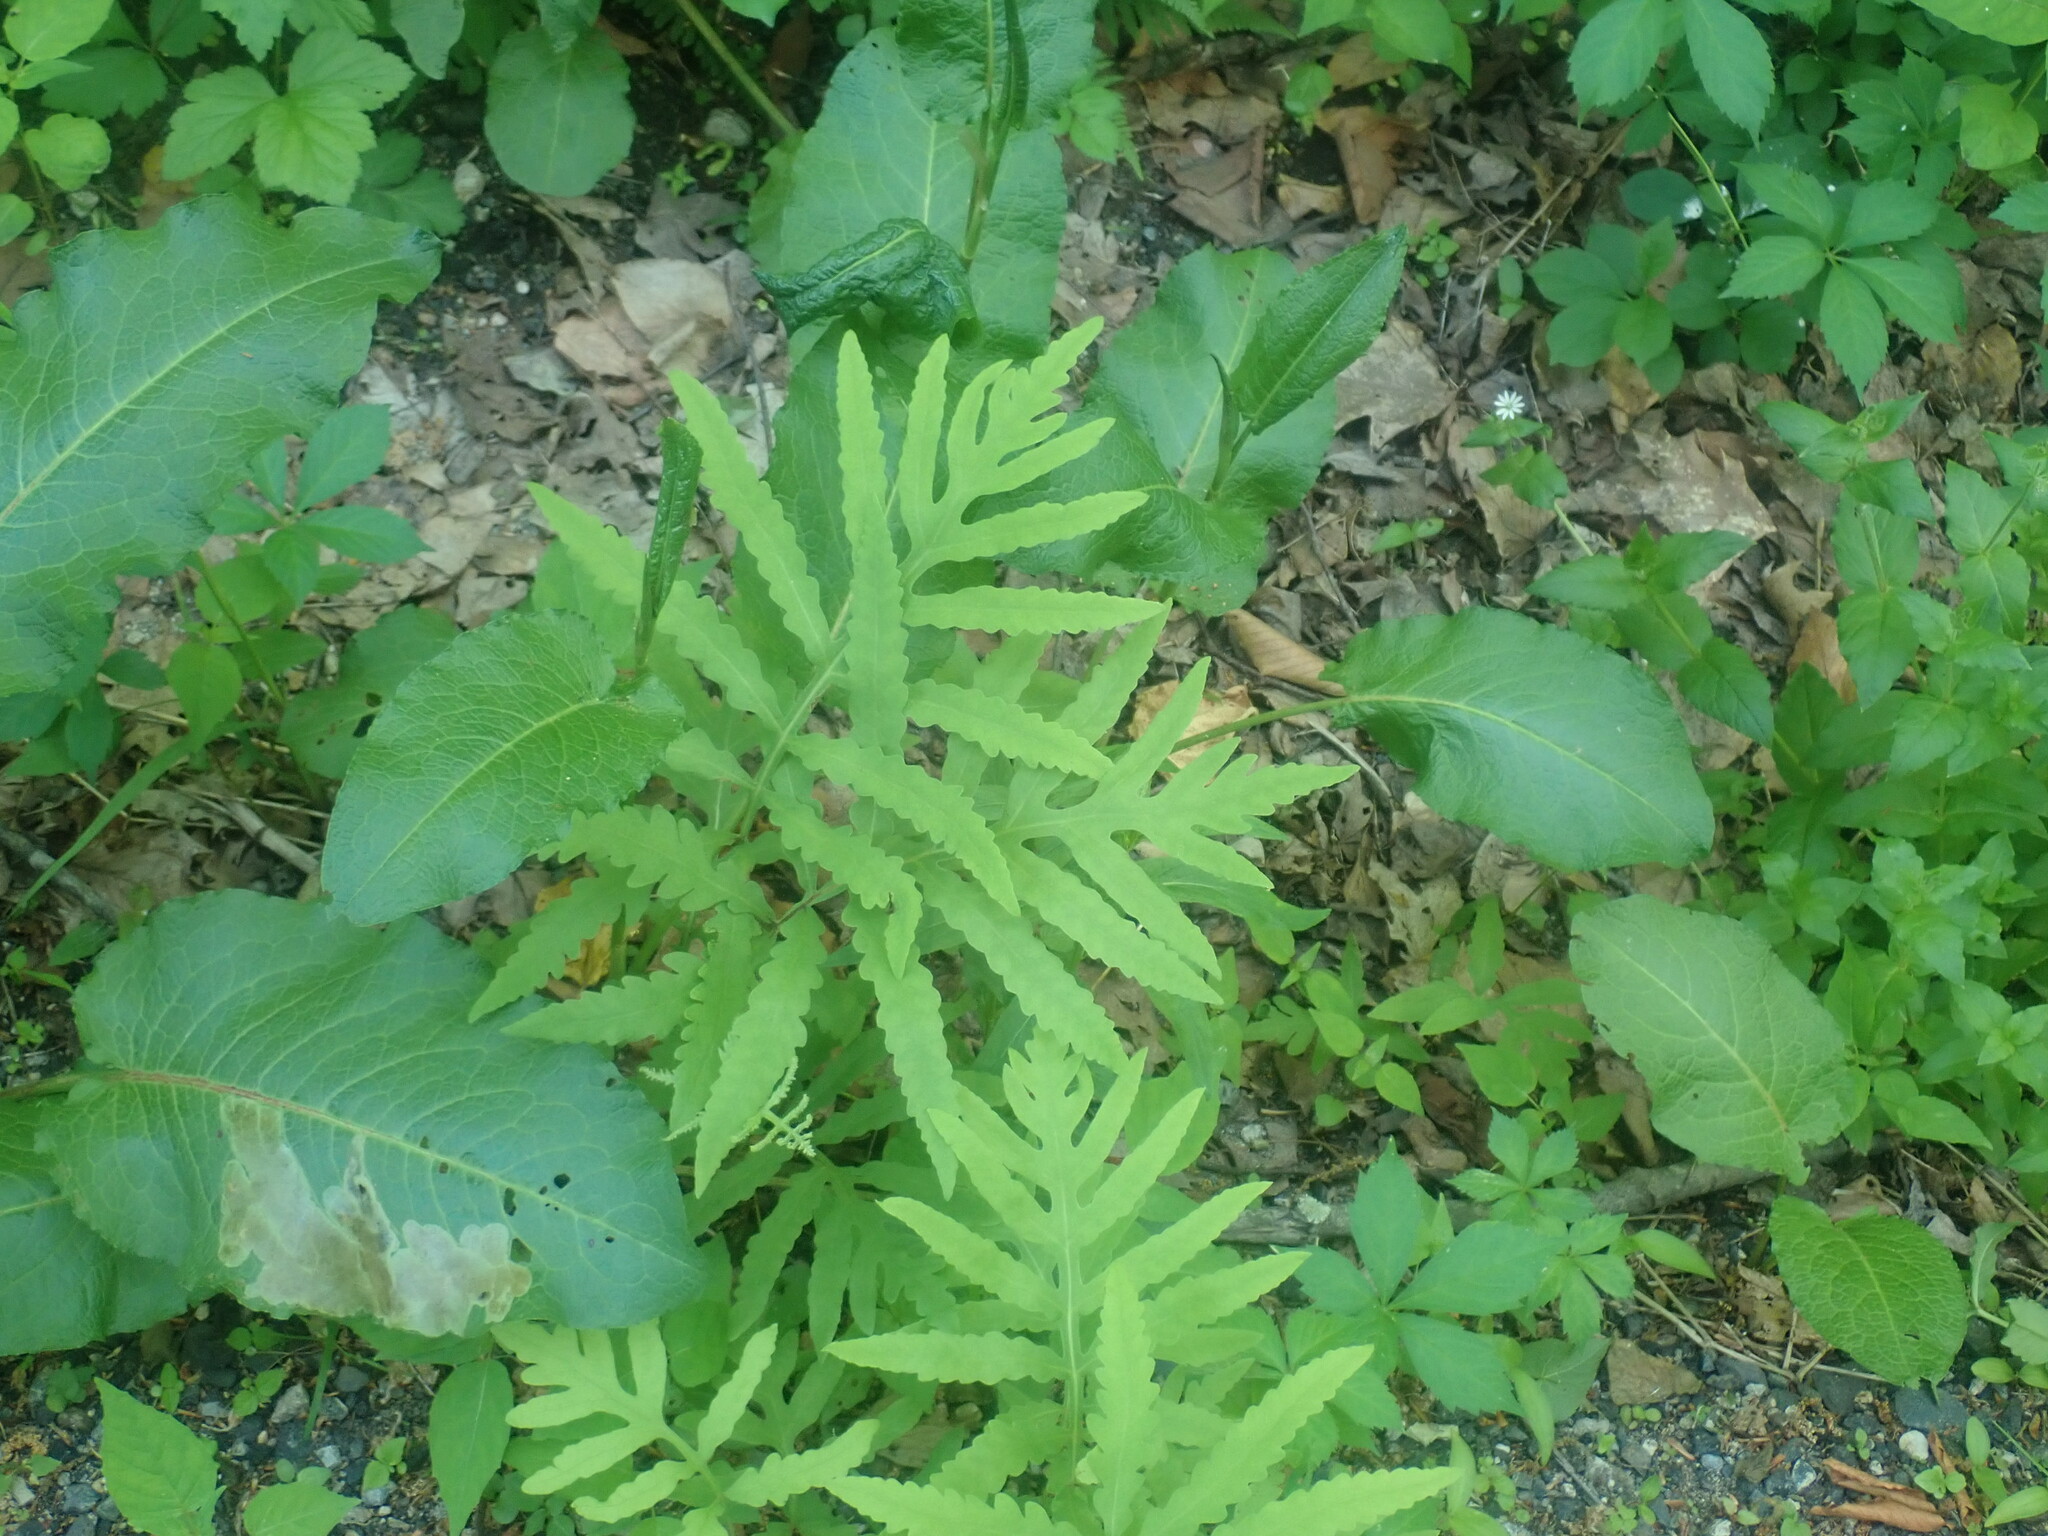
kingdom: Plantae
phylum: Tracheophyta
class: Polypodiopsida
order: Polypodiales
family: Onocleaceae
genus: Onoclea
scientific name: Onoclea sensibilis
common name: Sensitive fern
